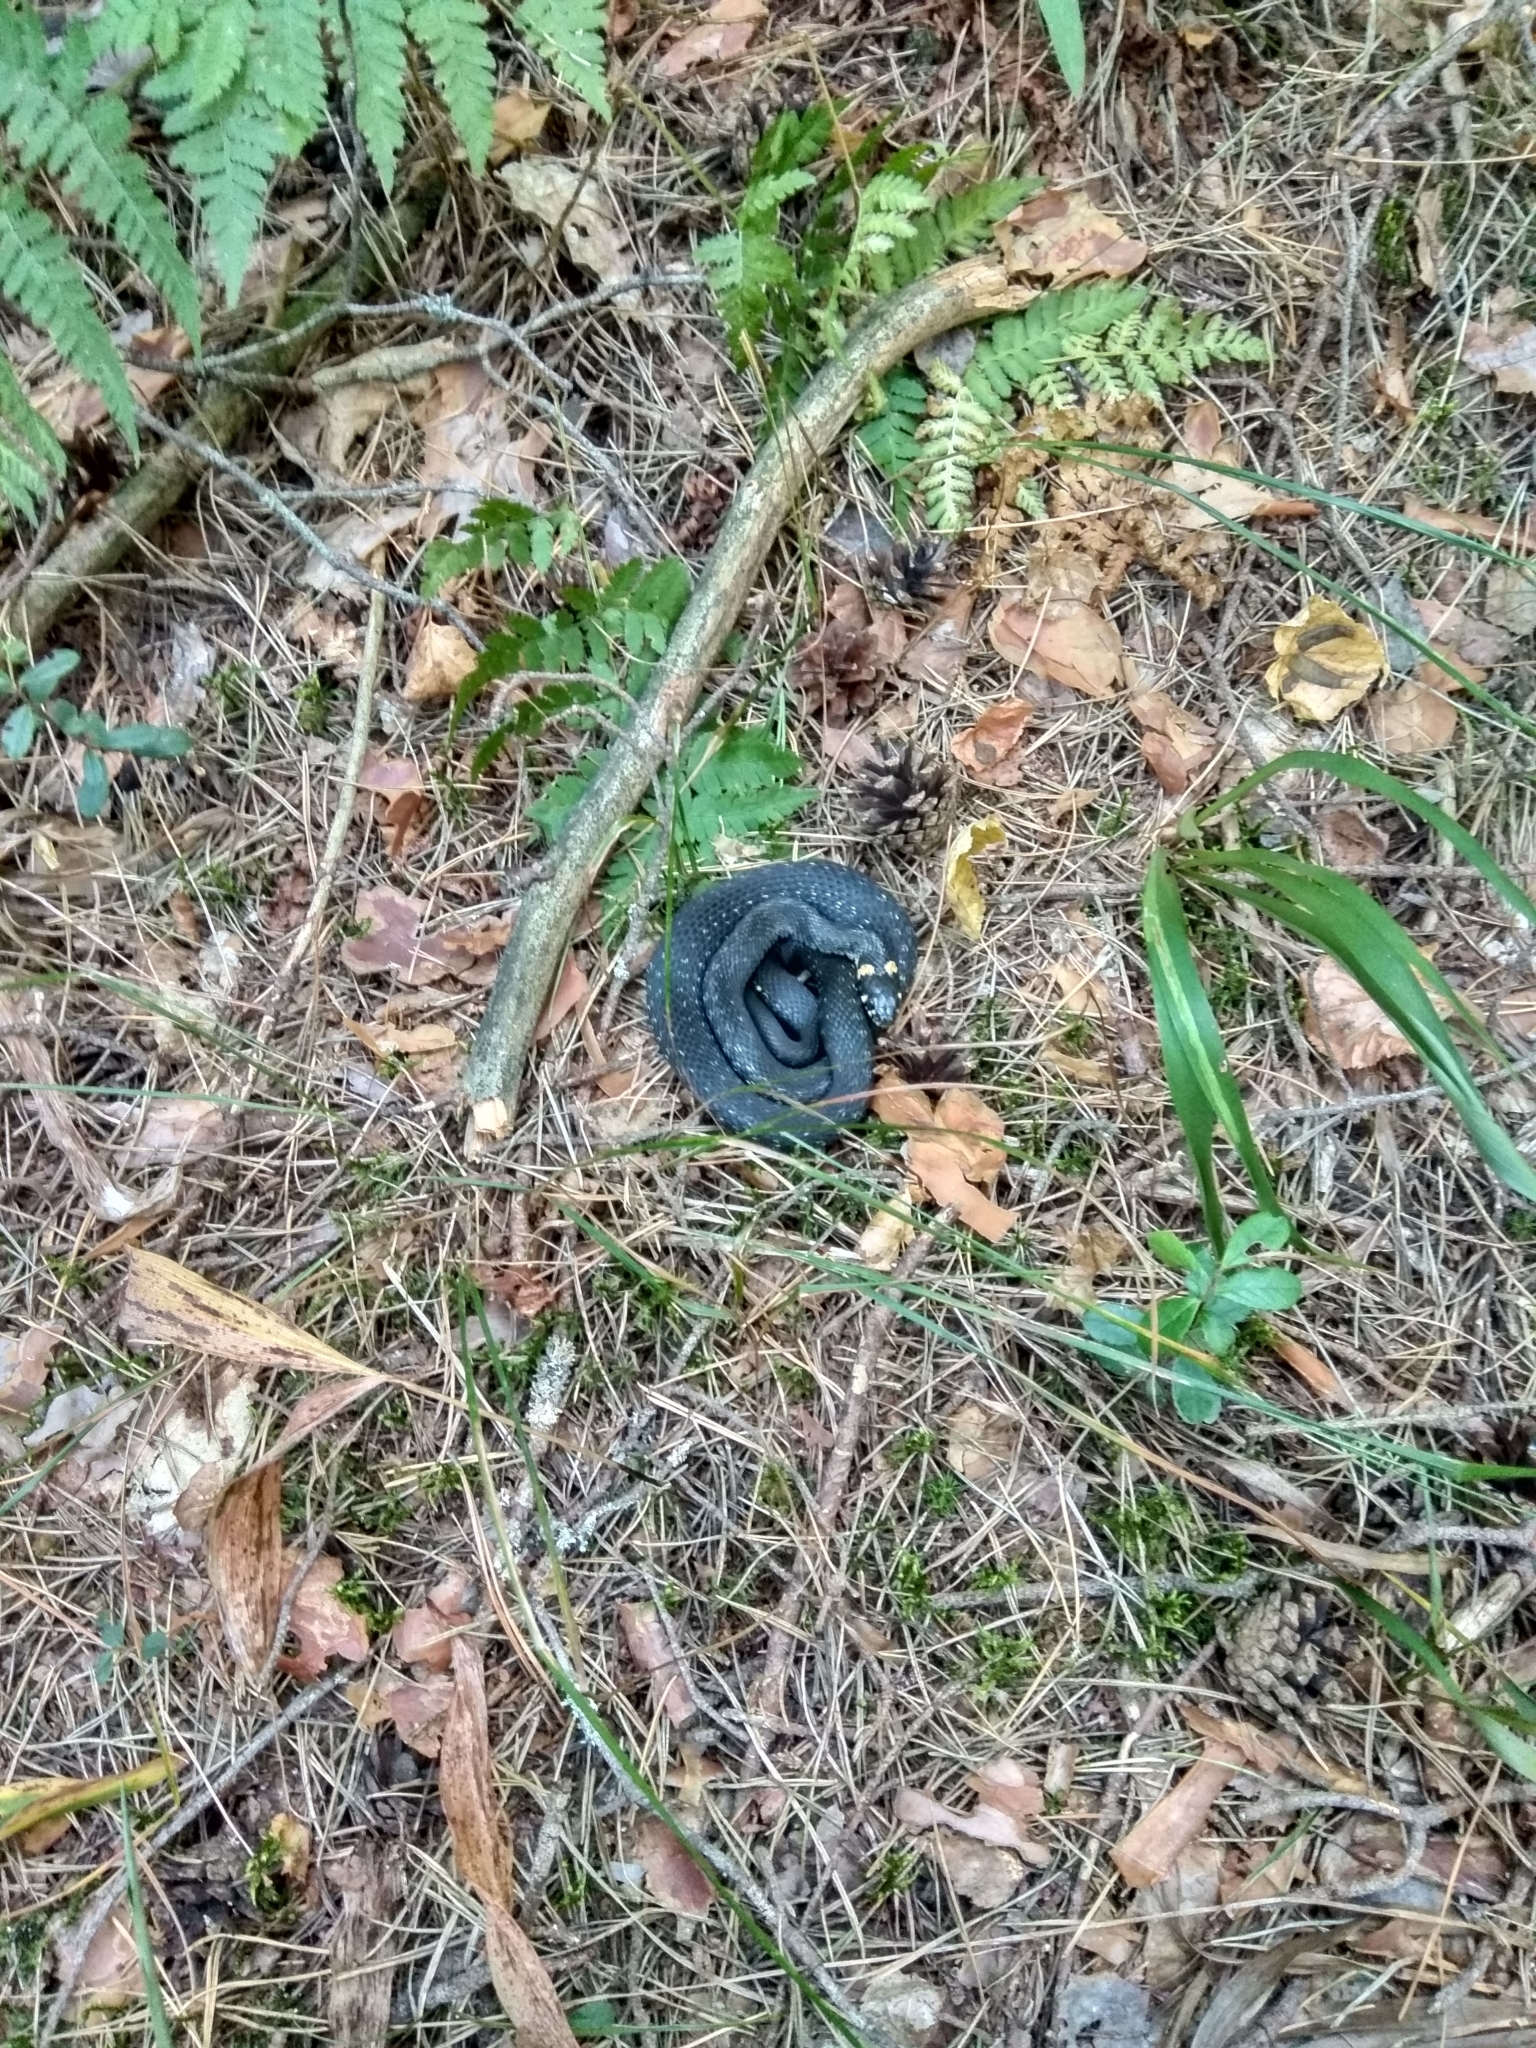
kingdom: Animalia
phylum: Chordata
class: Squamata
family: Colubridae
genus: Natrix
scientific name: Natrix natrix
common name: Grass snake
